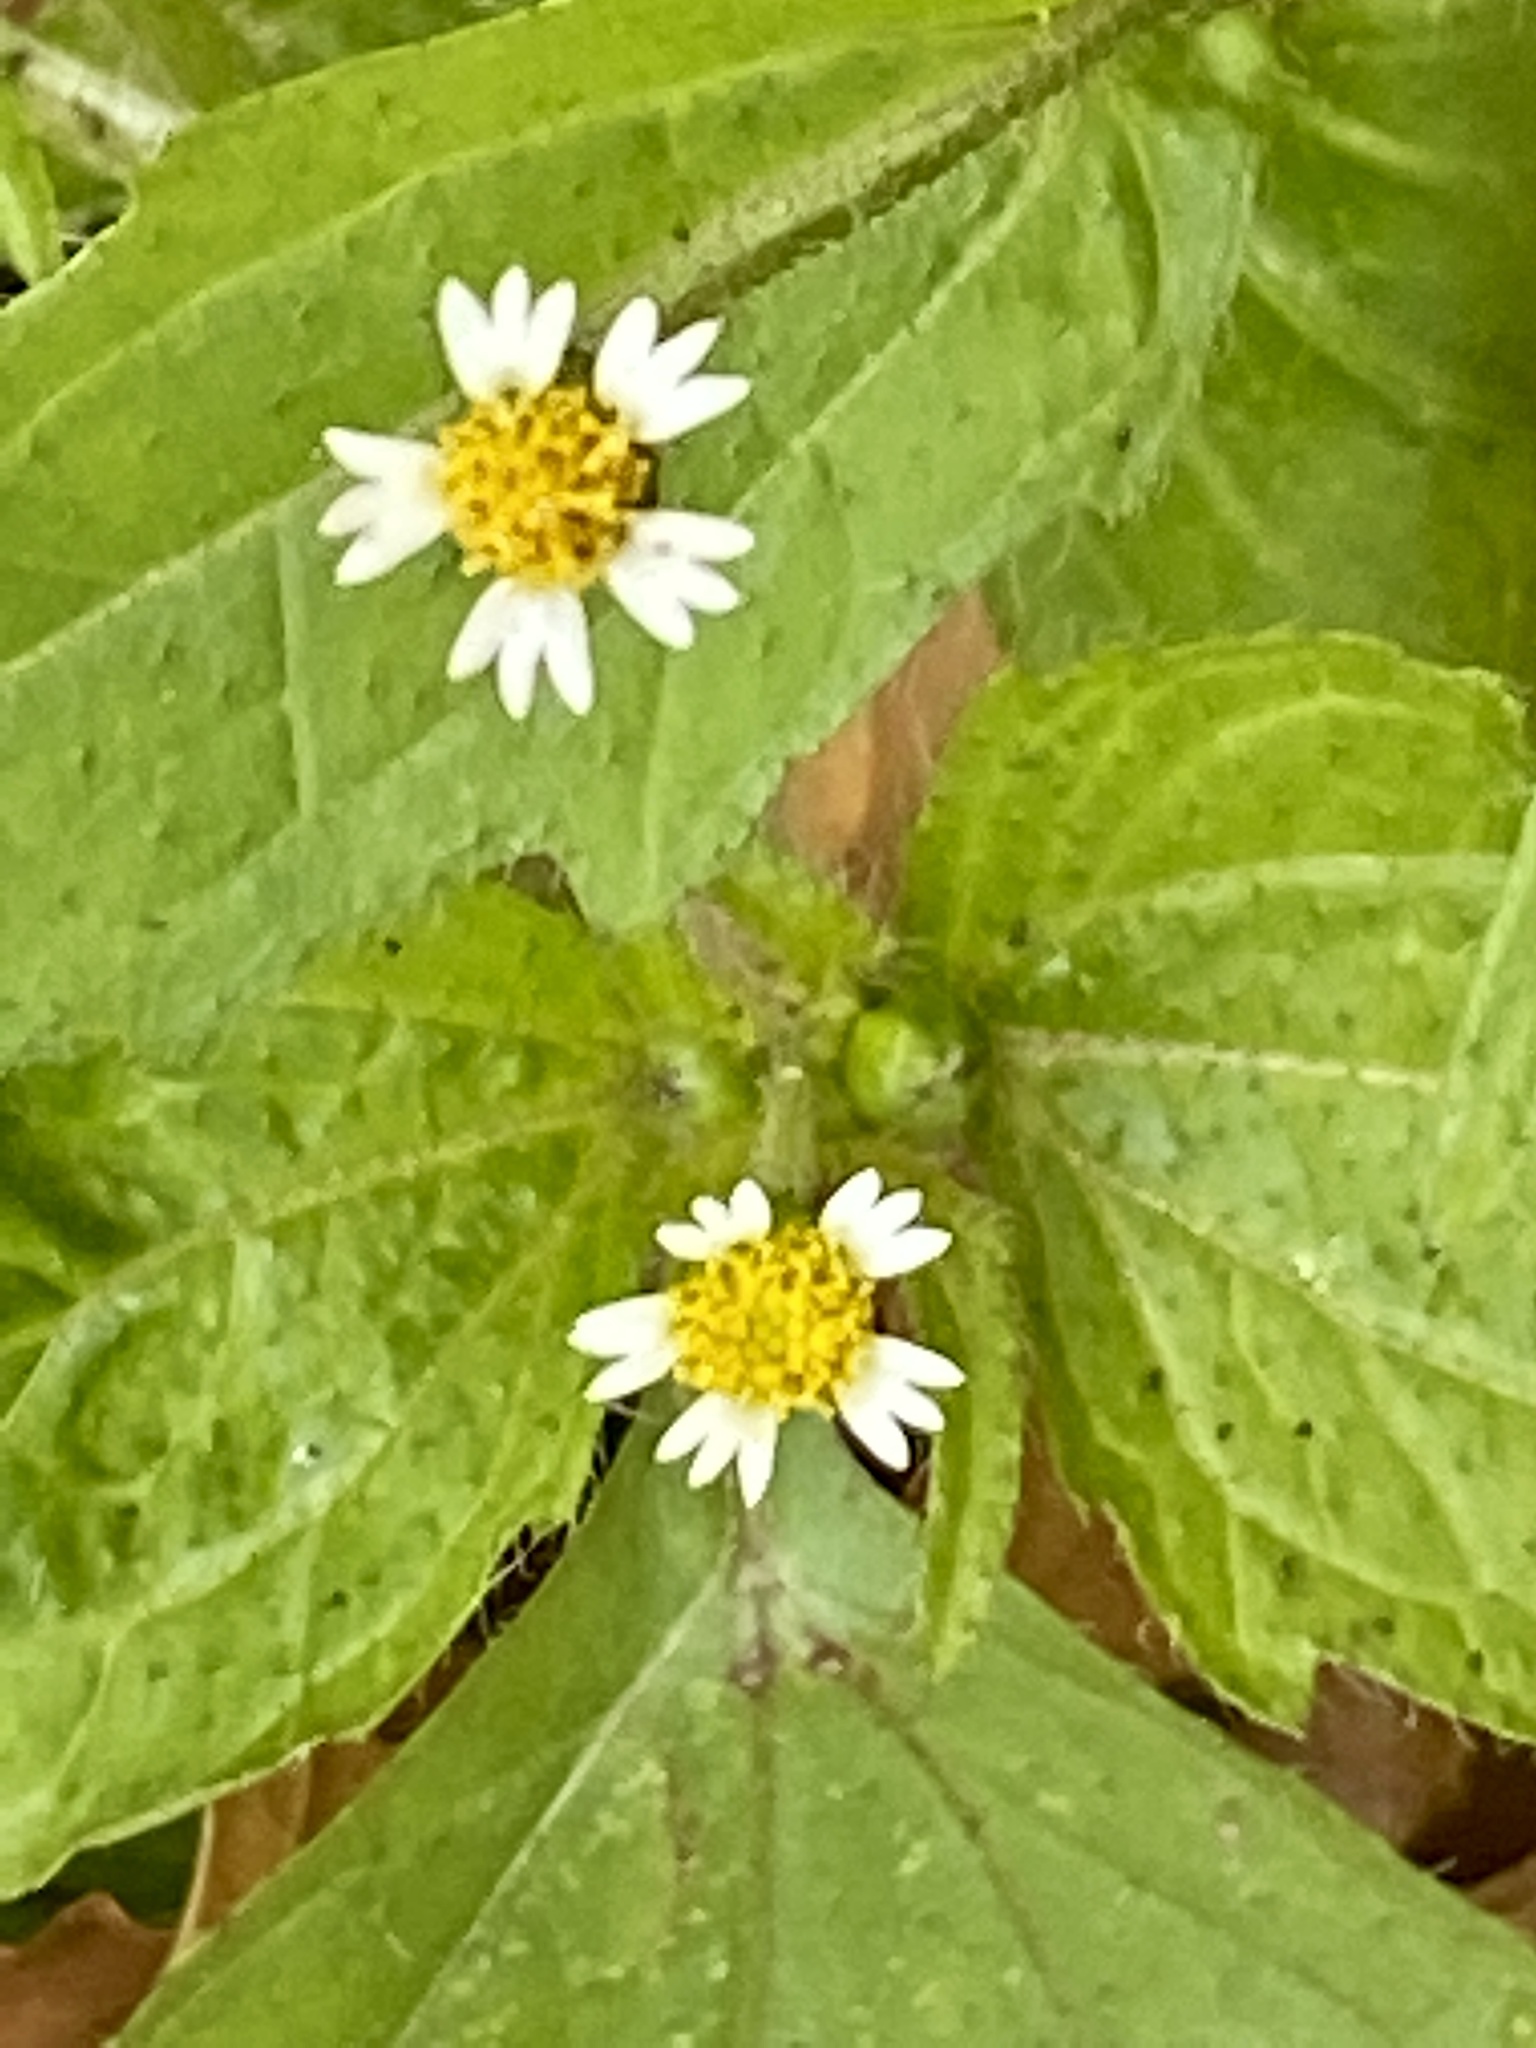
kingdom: Plantae
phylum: Tracheophyta
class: Magnoliopsida
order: Asterales
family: Asteraceae
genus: Galinsoga
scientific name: Galinsoga quadriradiata
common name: Shaggy soldier
